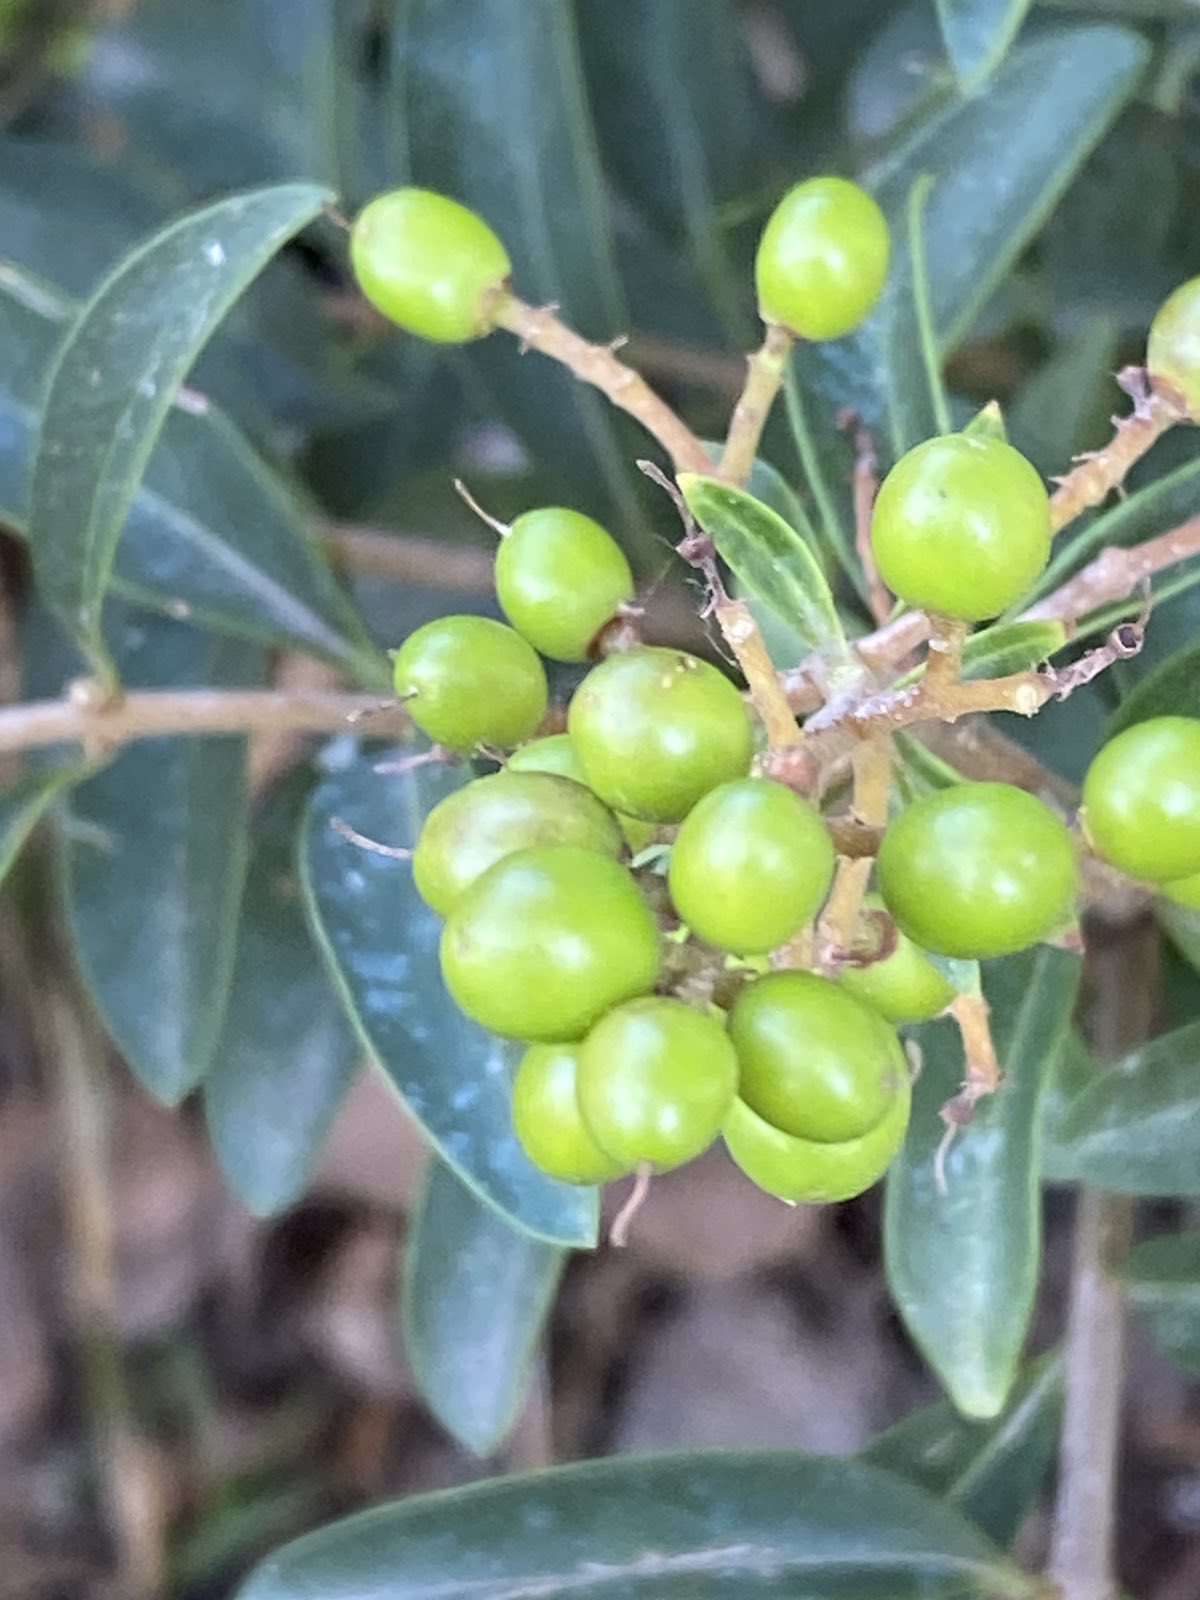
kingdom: Plantae
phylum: Tracheophyta
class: Magnoliopsida
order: Lamiales
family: Oleaceae
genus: Ligustrum
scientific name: Ligustrum vulgare
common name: Wild privet
